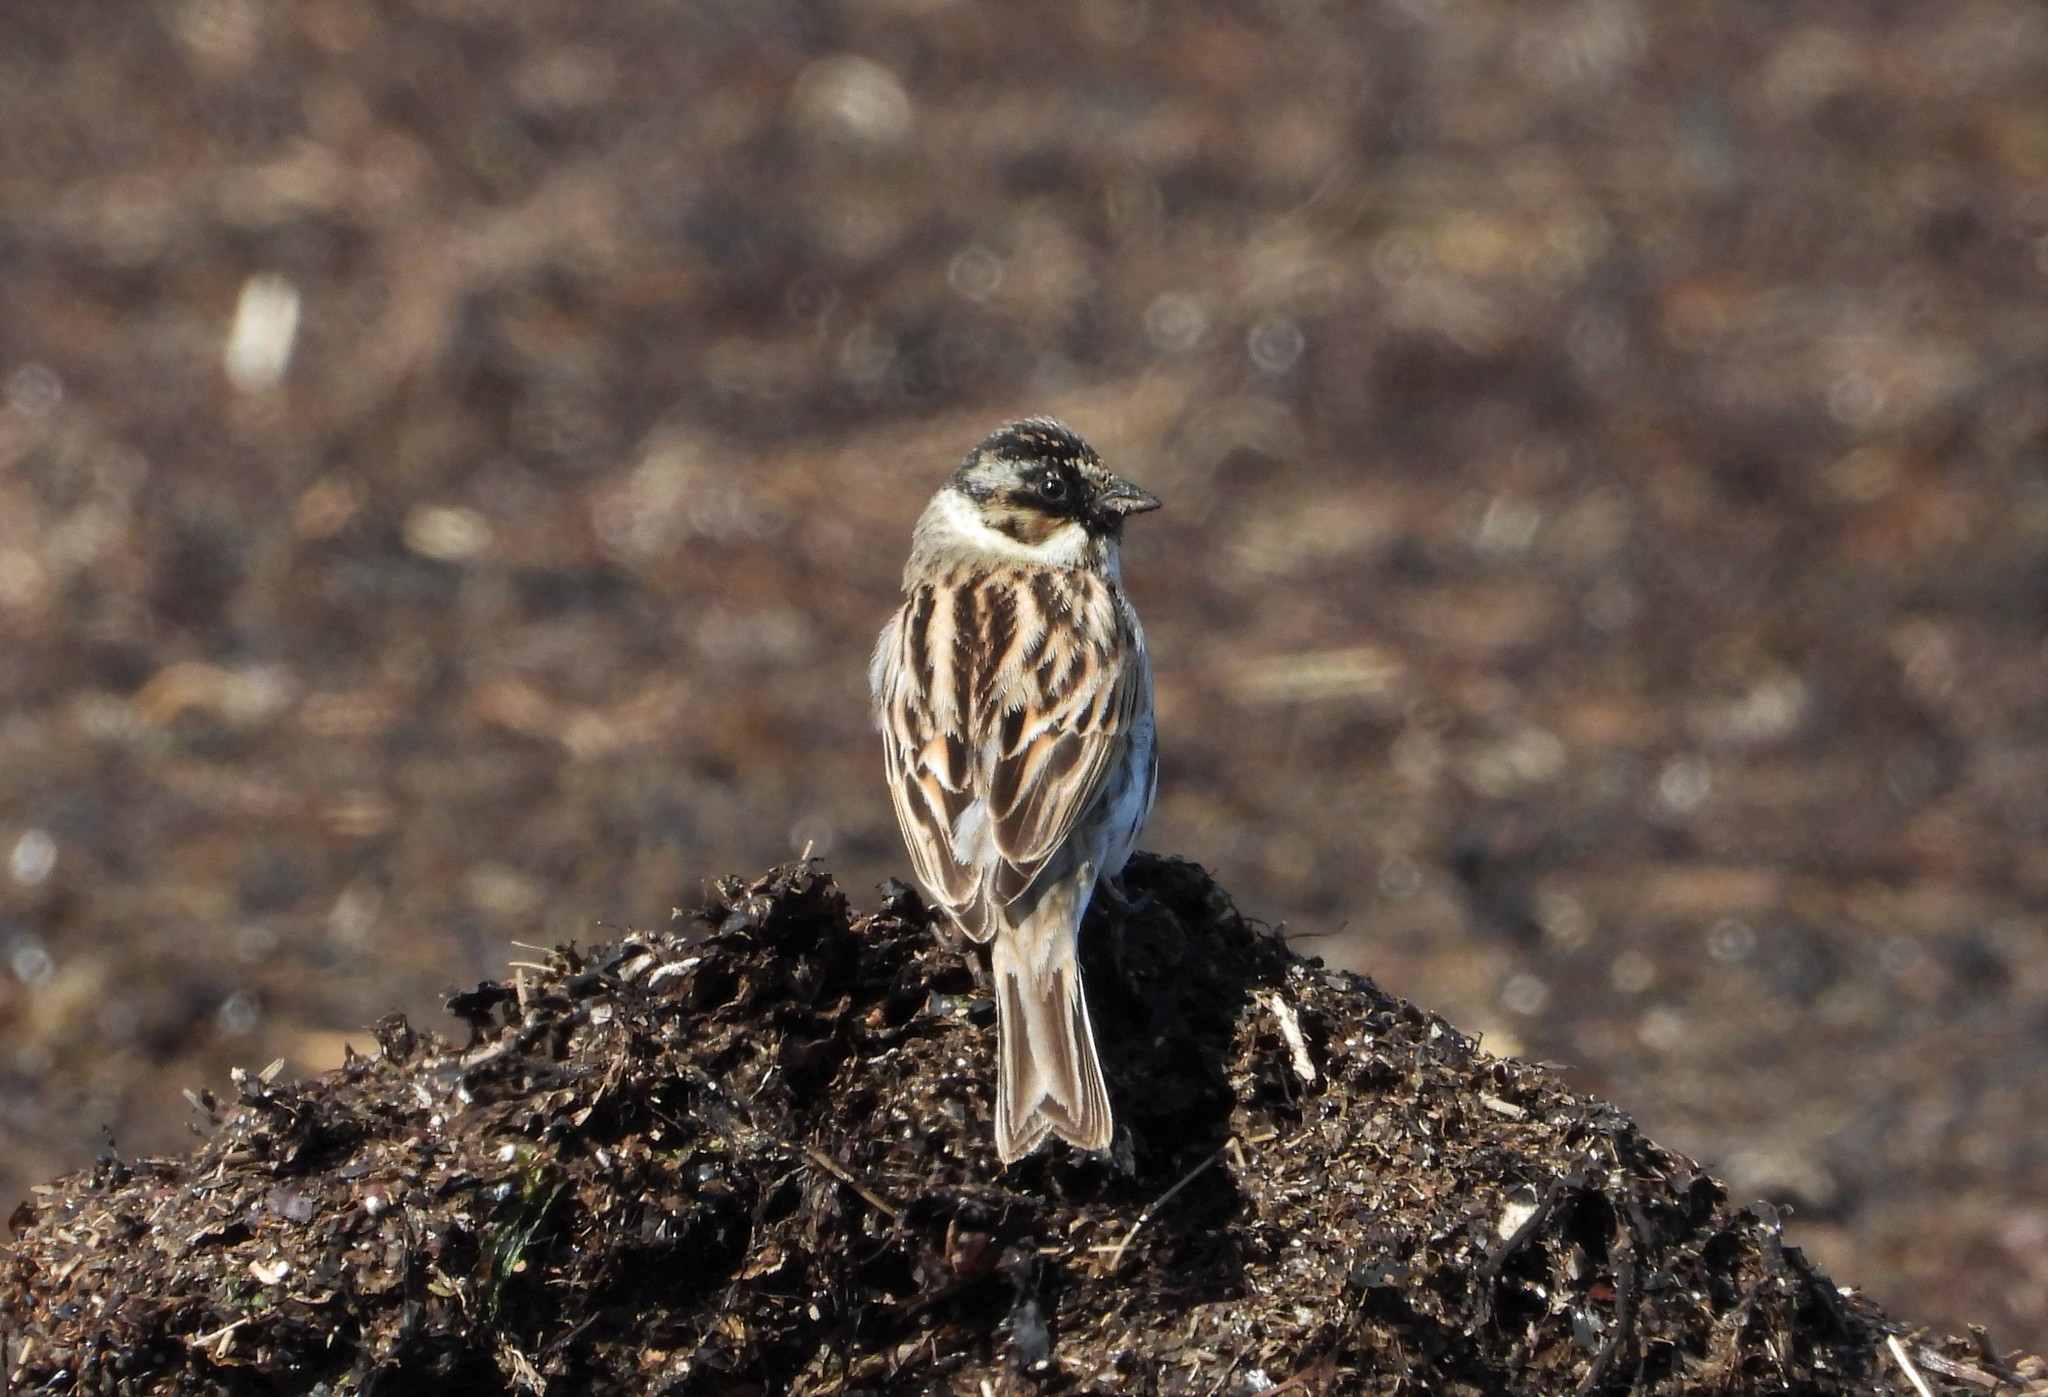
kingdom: Animalia
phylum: Chordata
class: Aves
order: Passeriformes
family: Emberizidae
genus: Emberiza
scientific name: Emberiza schoeniclus
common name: Reed bunting
